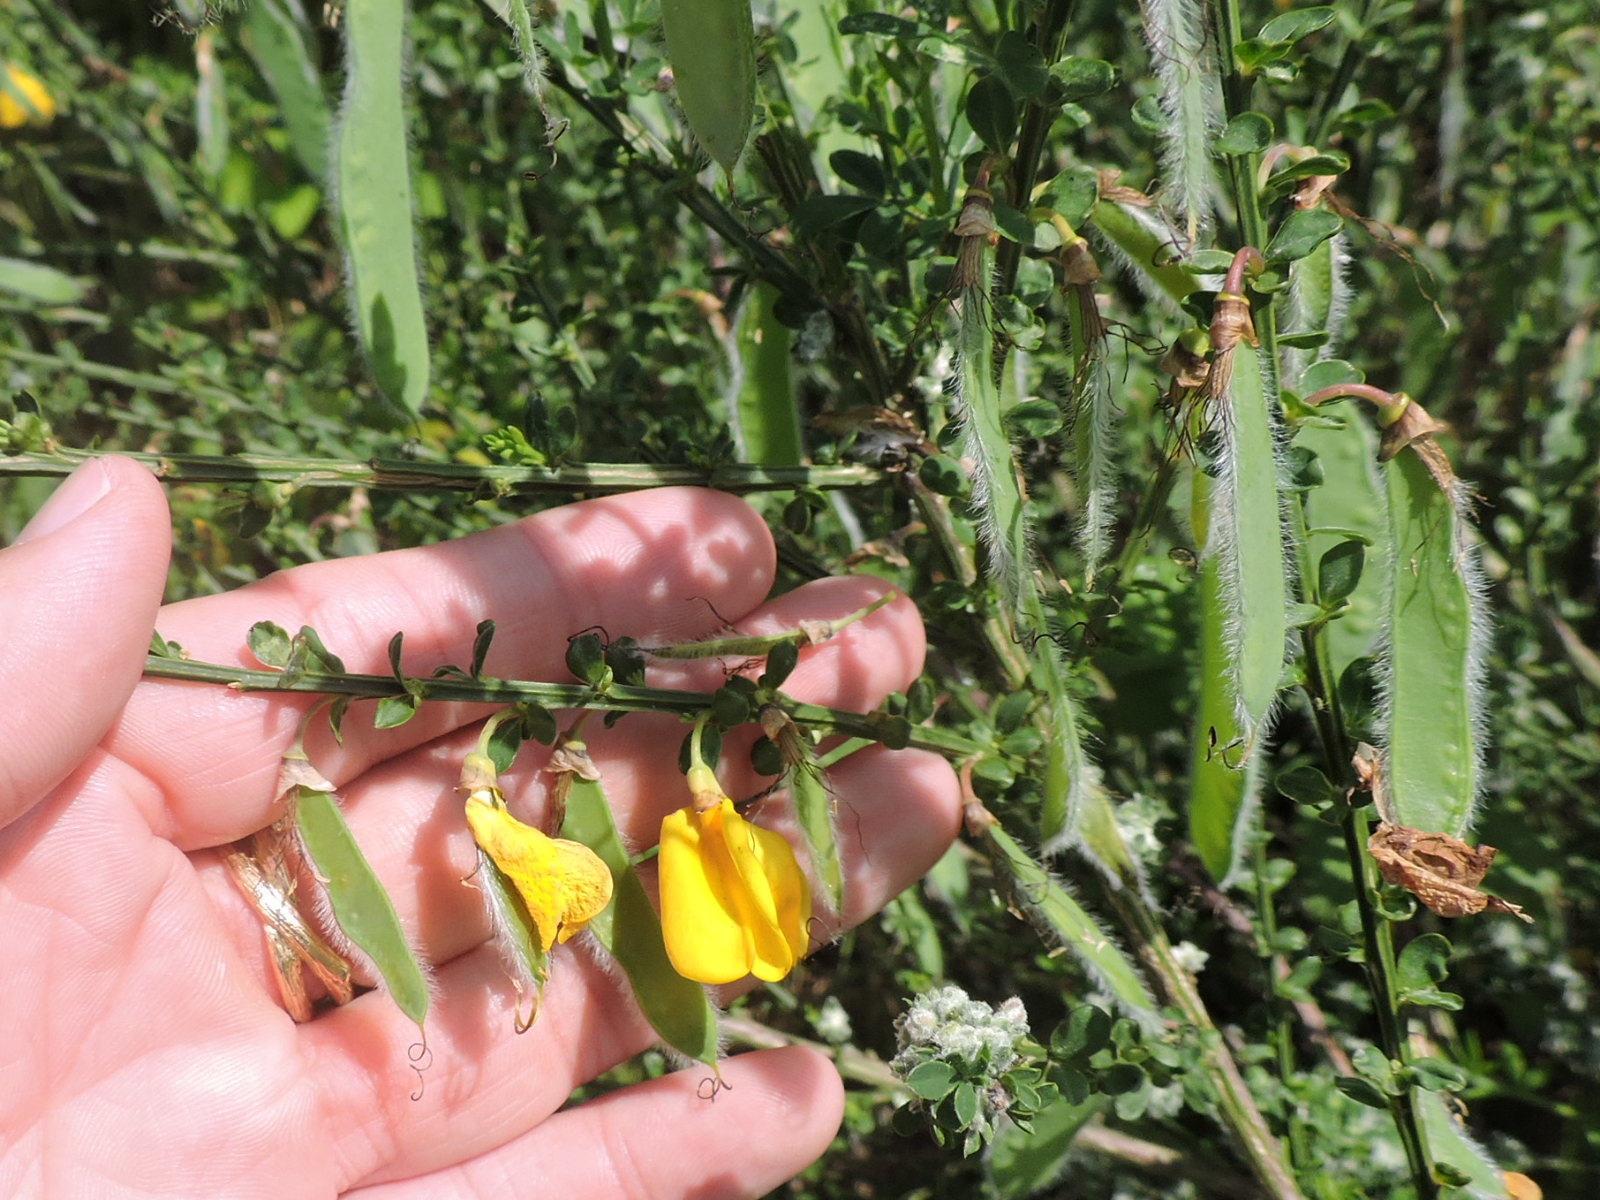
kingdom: Plantae
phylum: Tracheophyta
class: Magnoliopsida
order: Fabales
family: Fabaceae
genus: Cytisus
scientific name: Cytisus scoparius
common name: Scotch broom
